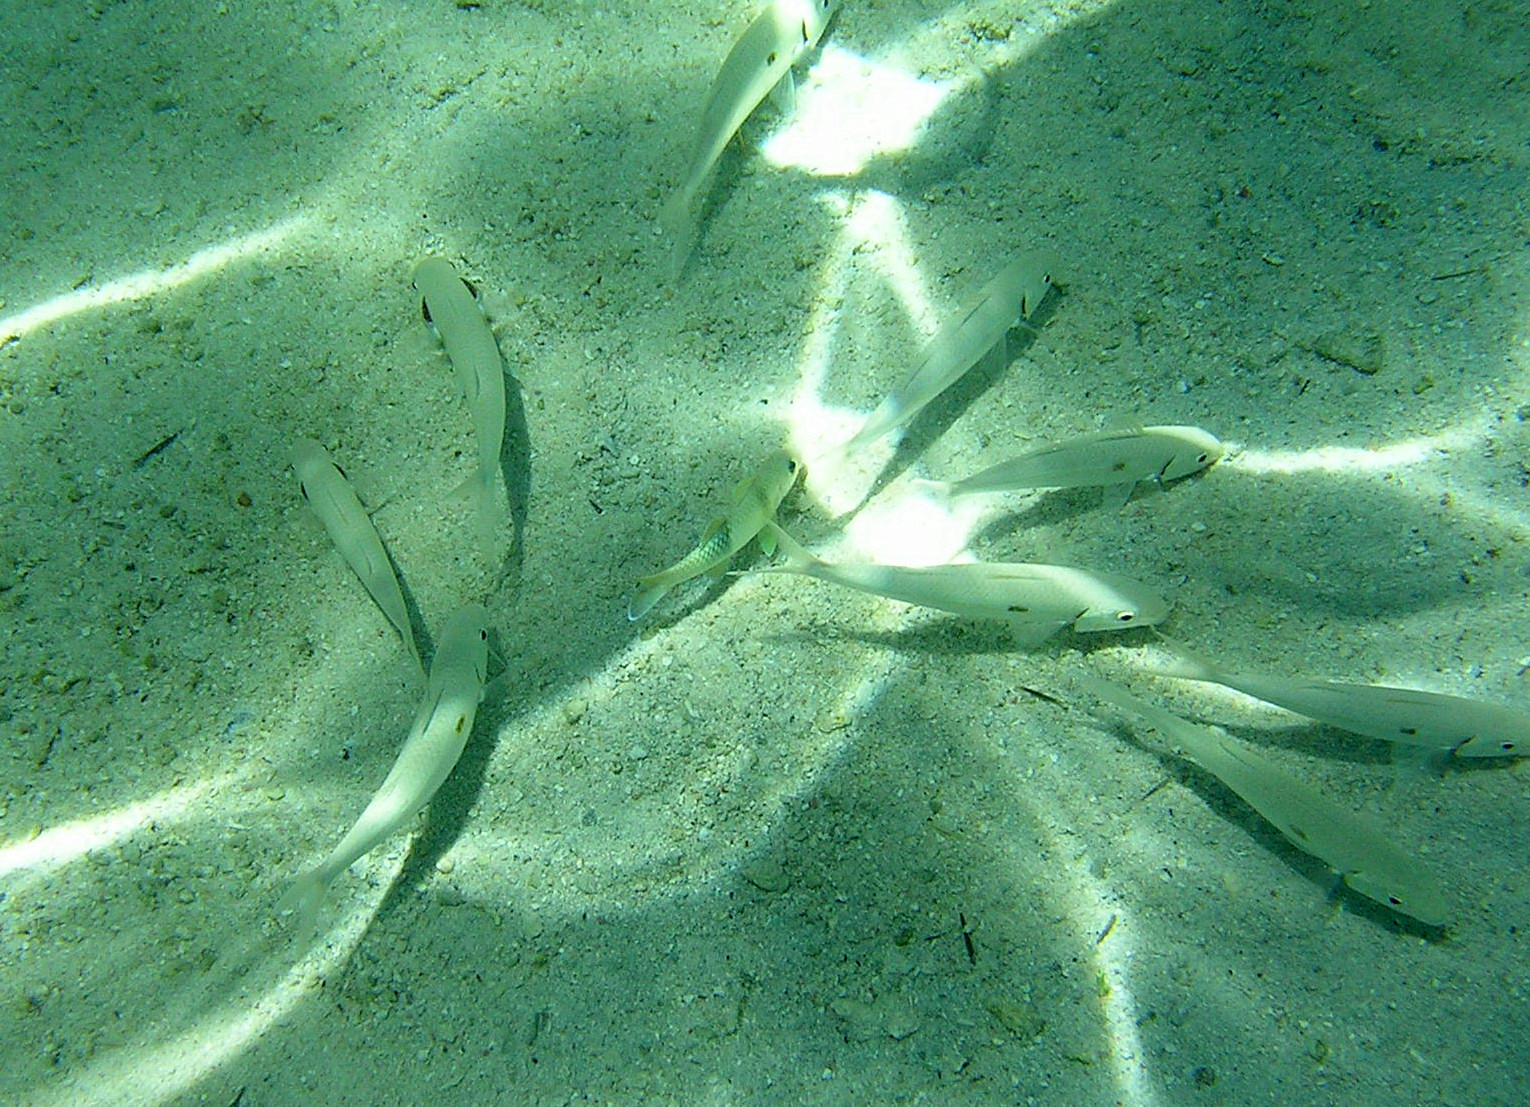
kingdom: Animalia
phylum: Chordata
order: Perciformes
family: Mullidae
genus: Mulloidichthys
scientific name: Mulloidichthys flavolineatus
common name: Yellowstripe goatfish
